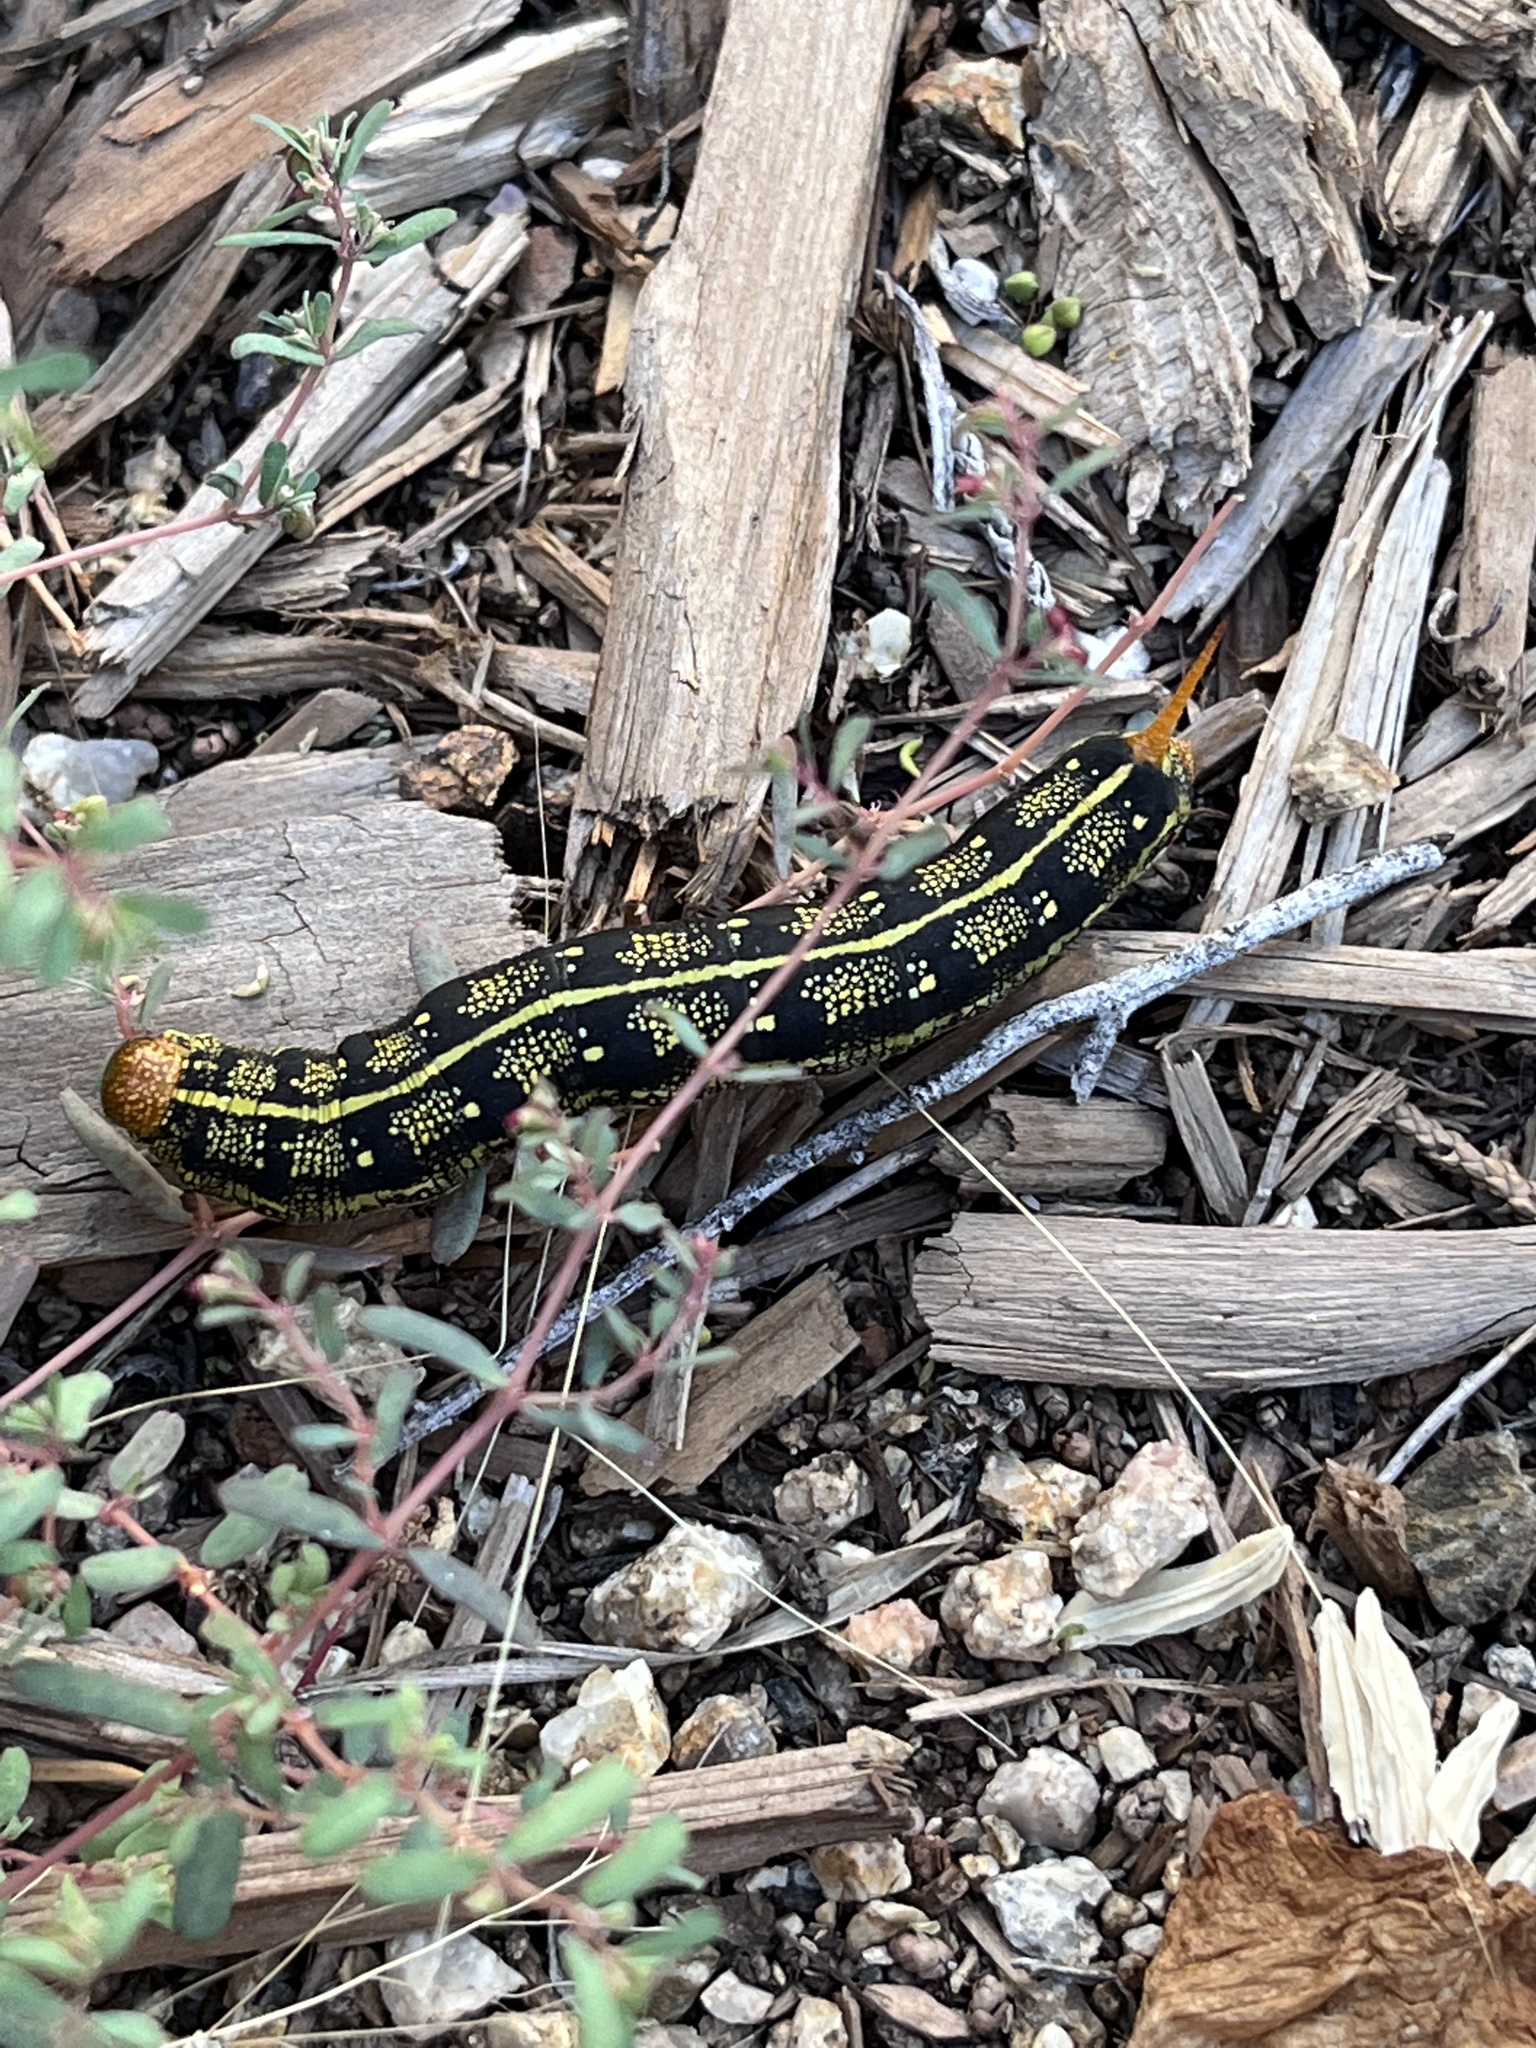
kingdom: Animalia
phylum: Arthropoda
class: Insecta
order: Lepidoptera
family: Sphingidae
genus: Hyles
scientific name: Hyles lineata
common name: White-lined sphinx
